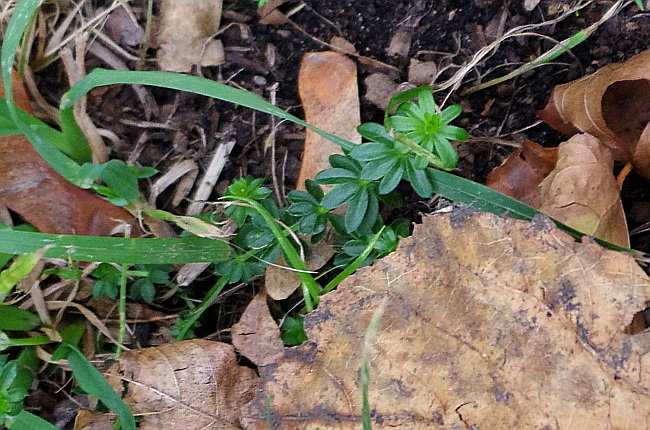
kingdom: Plantae
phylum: Tracheophyta
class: Magnoliopsida
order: Gentianales
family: Rubiaceae
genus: Galium
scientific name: Galium mollugo
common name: Hedge bedstraw
